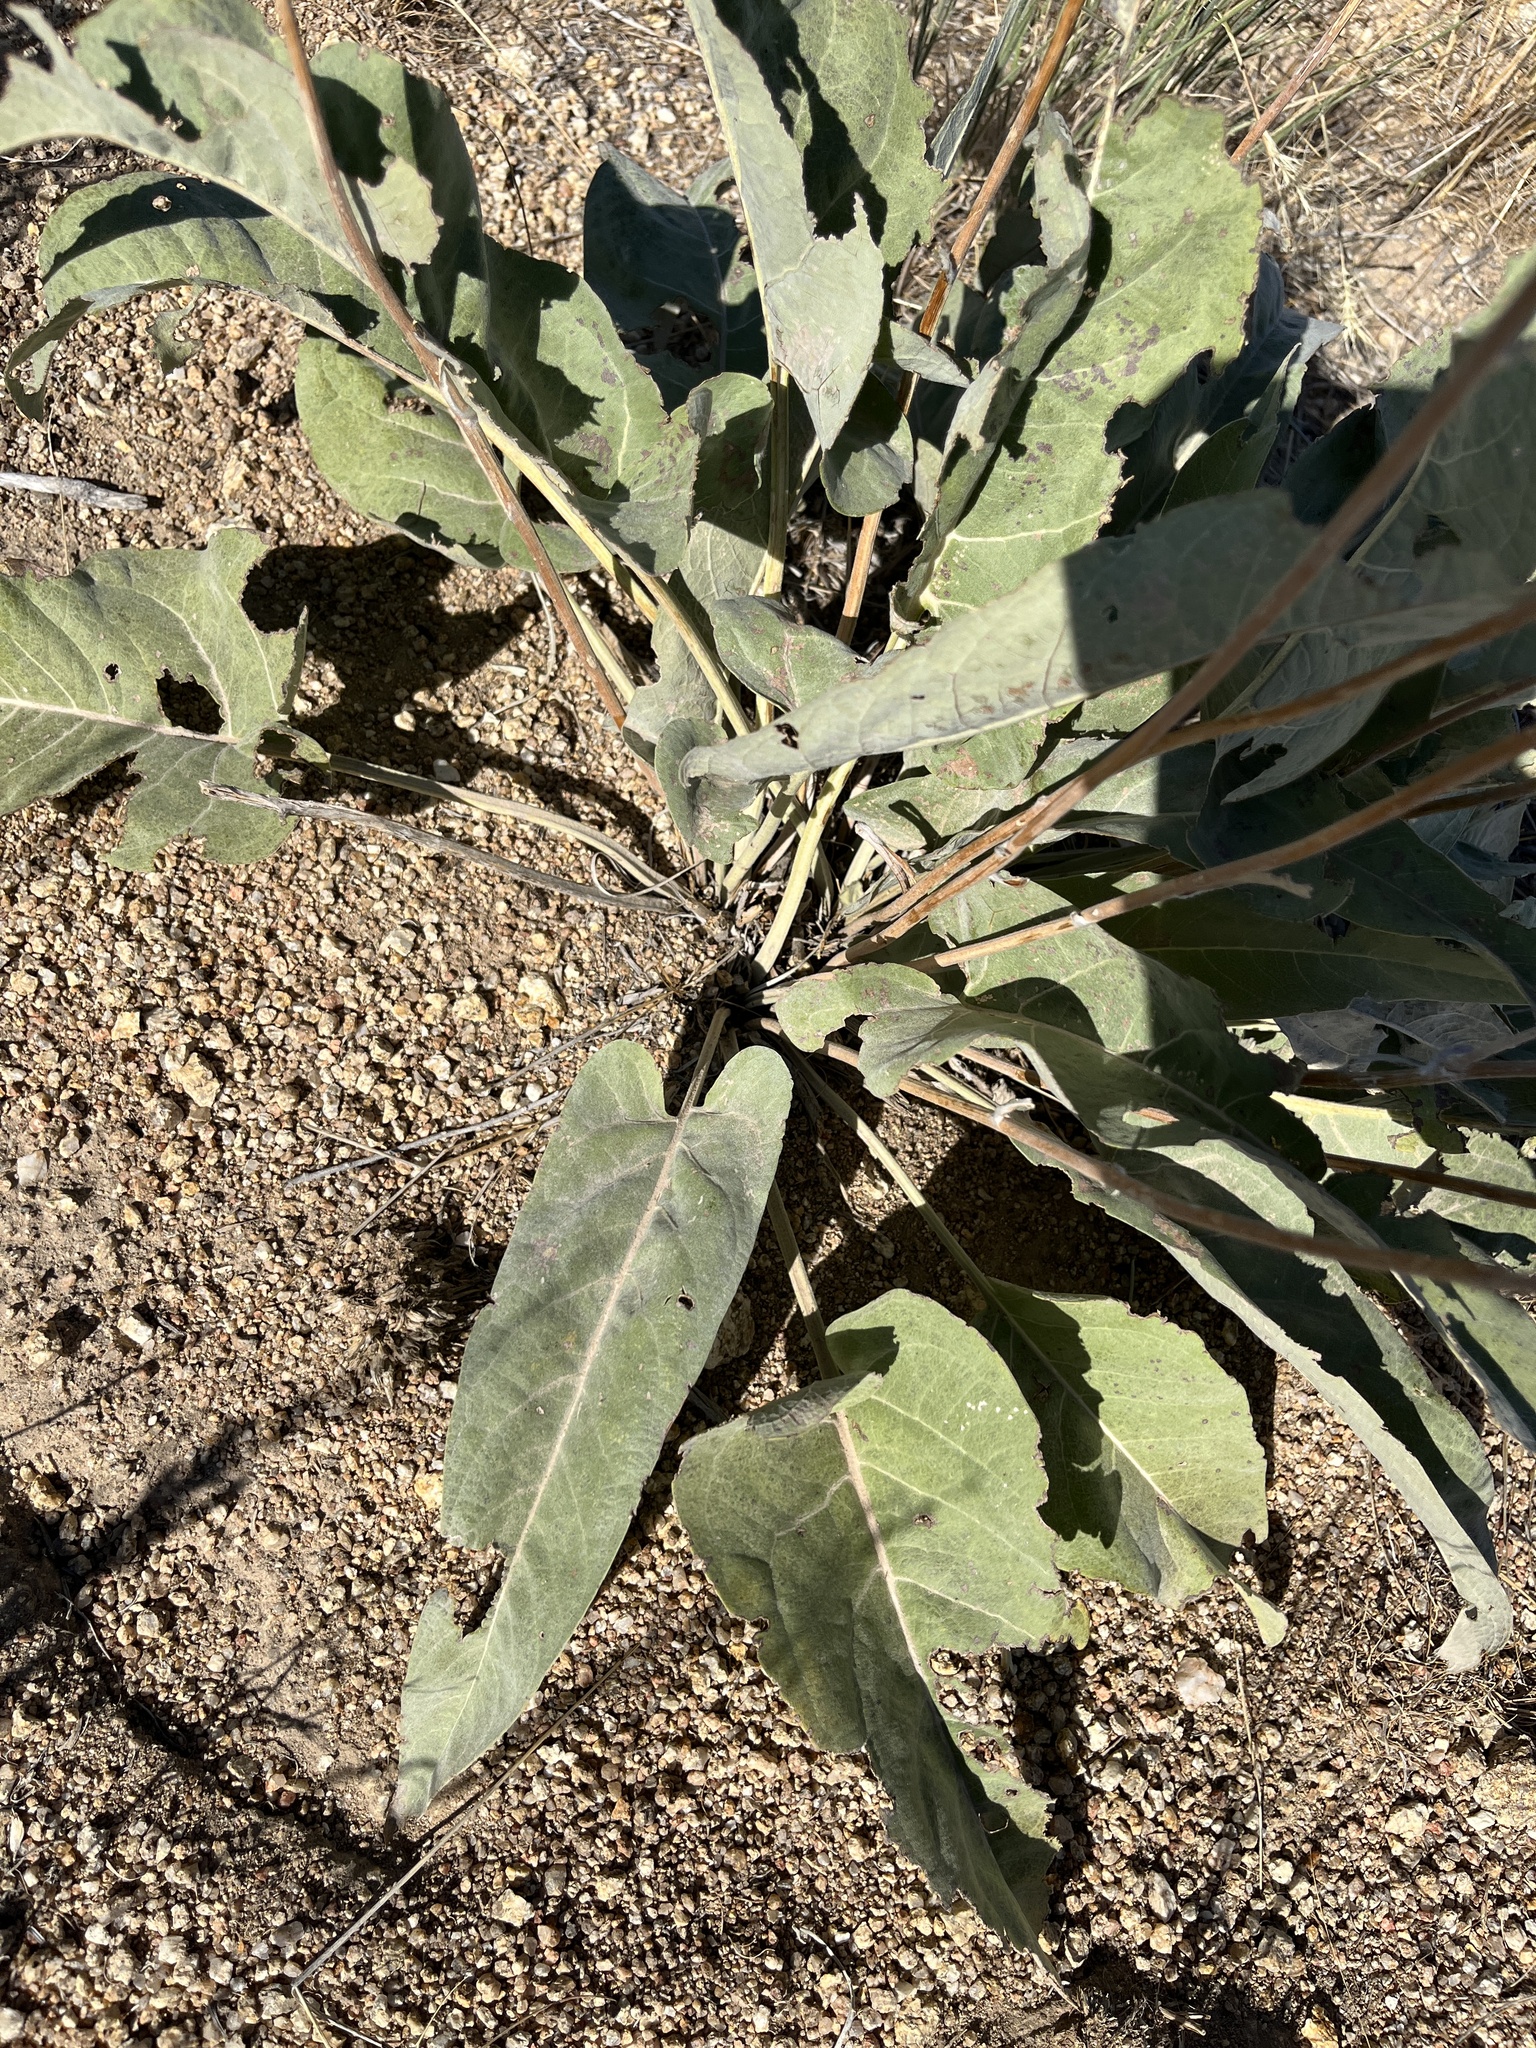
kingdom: Plantae
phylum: Tracheophyta
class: Magnoliopsida
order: Asterales
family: Asteraceae
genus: Wyethia
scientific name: Wyethia sagittata
